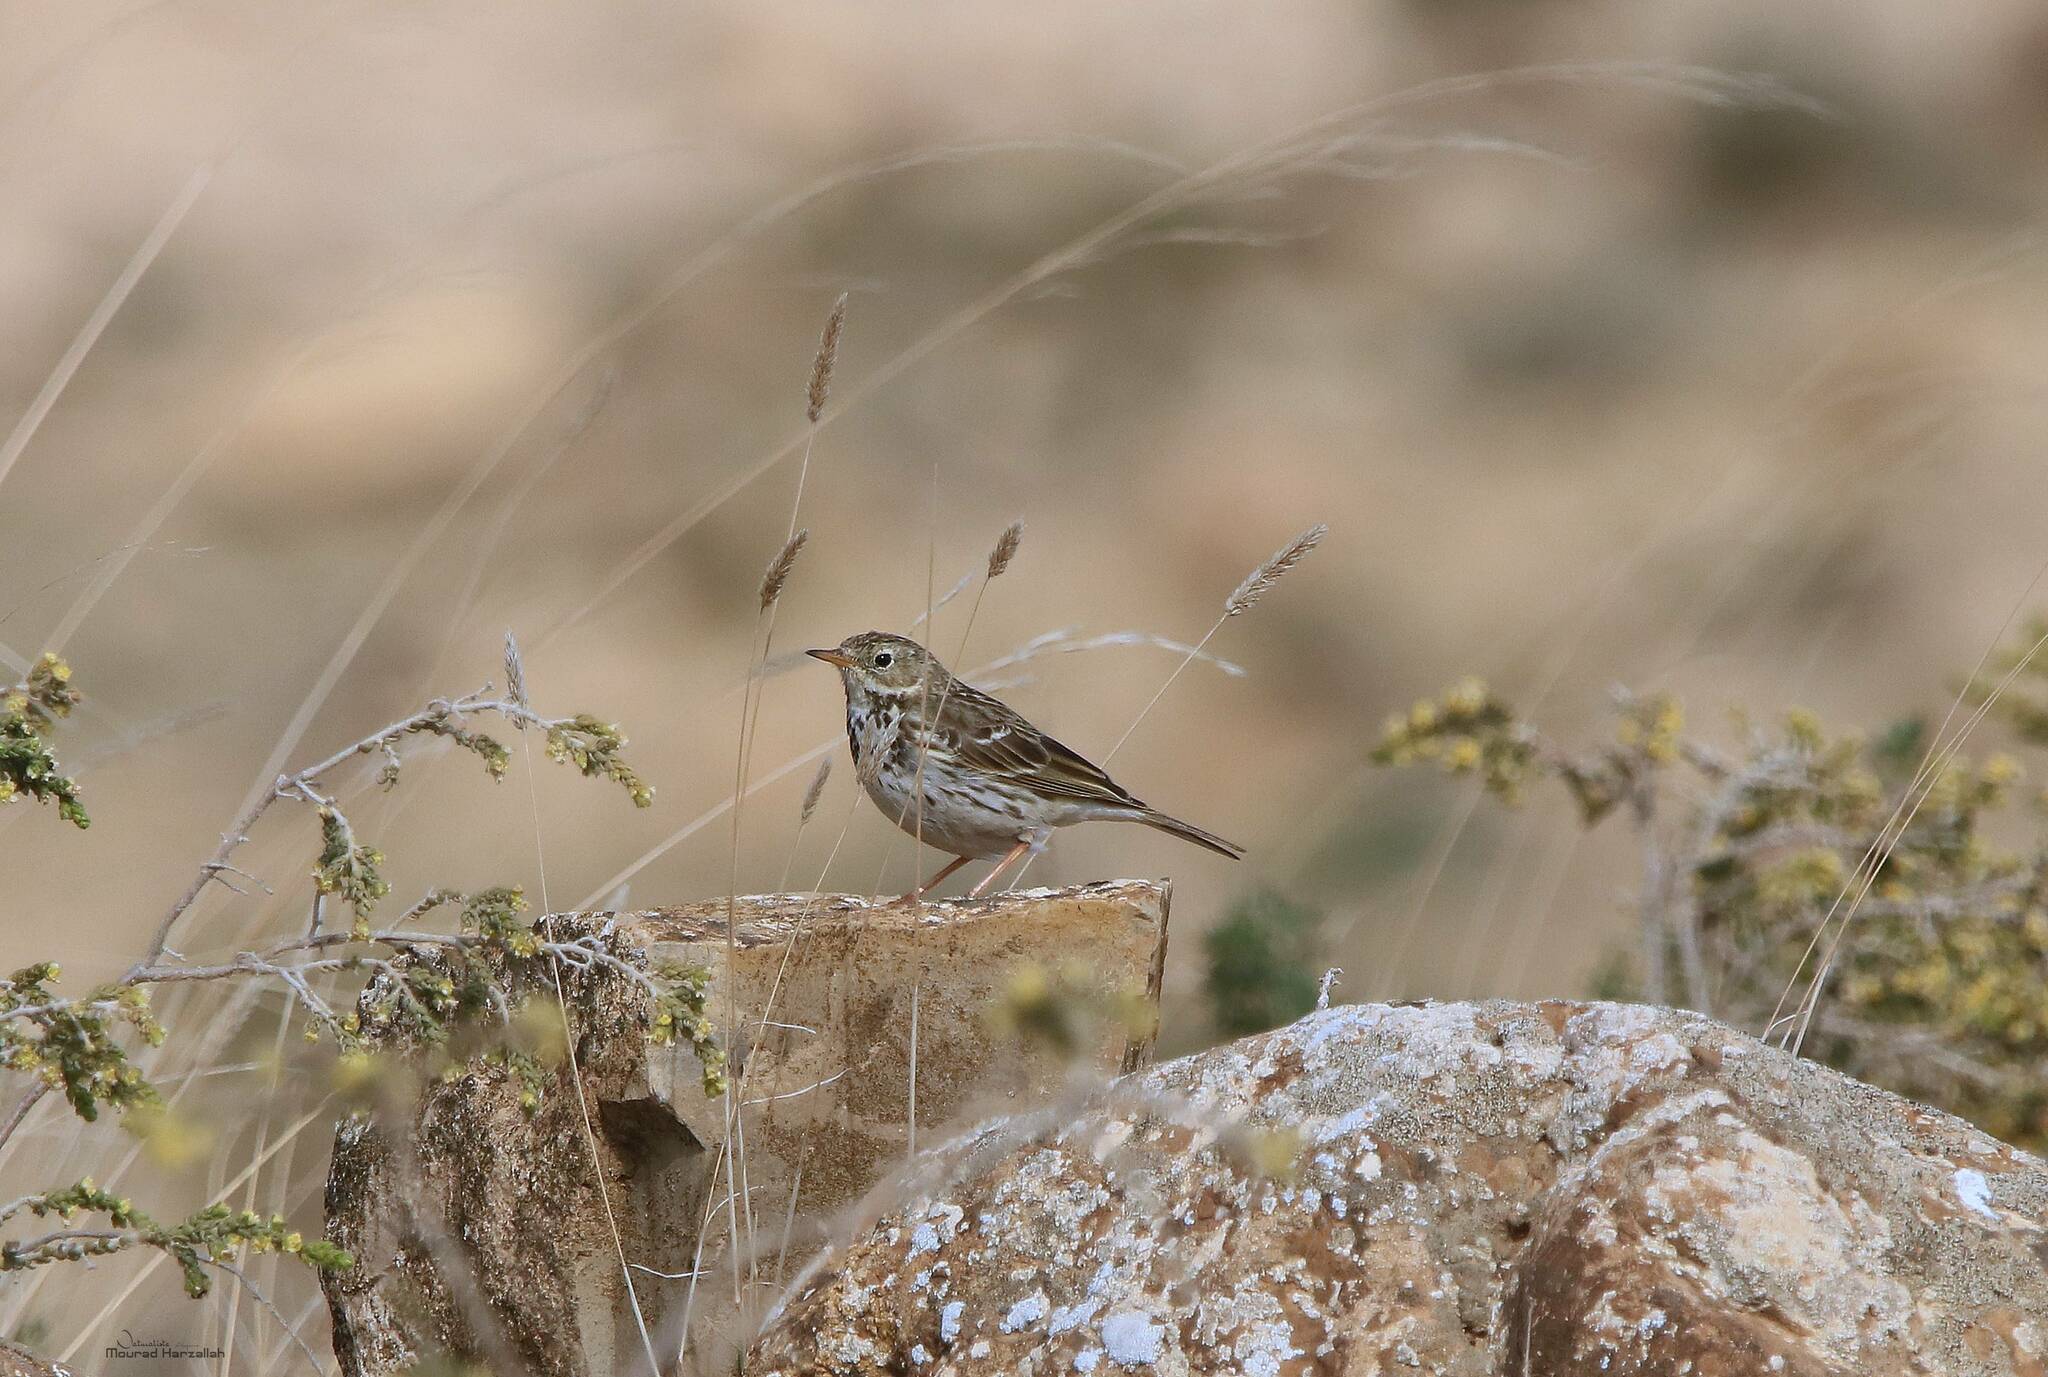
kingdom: Animalia
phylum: Chordata
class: Aves
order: Passeriformes
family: Motacillidae
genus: Anthus
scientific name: Anthus pratensis
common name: Meadow pipit
